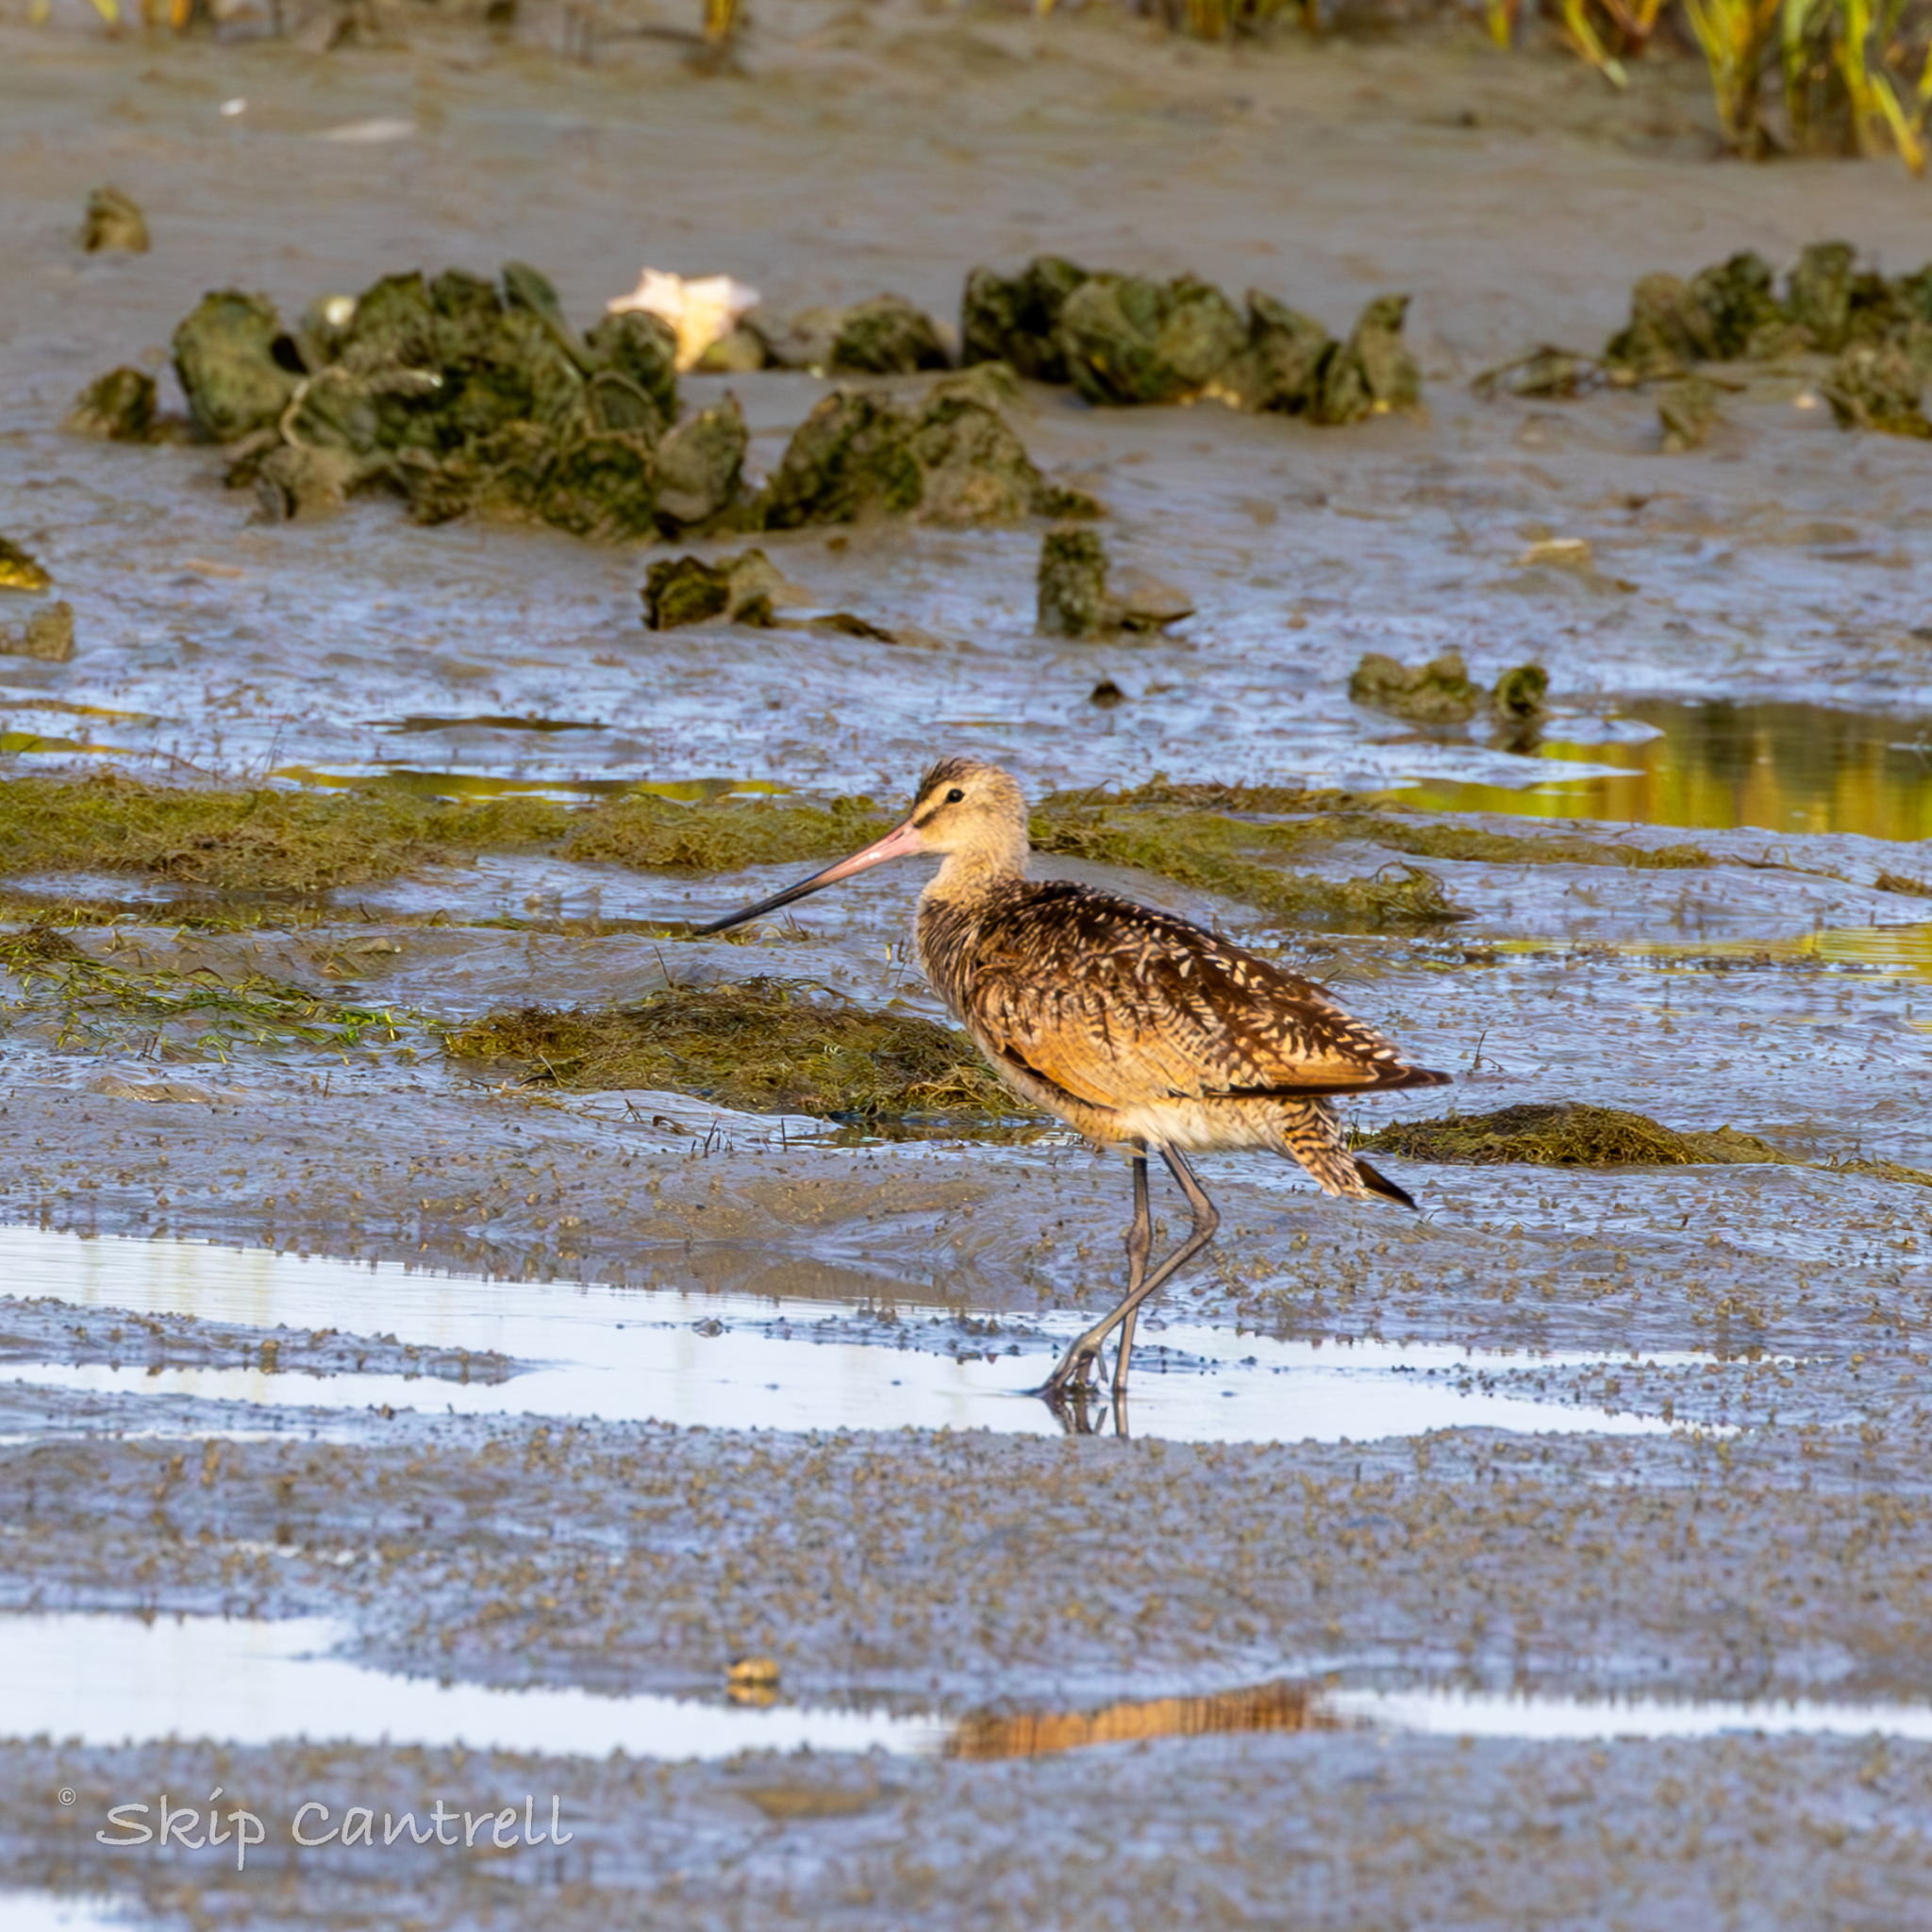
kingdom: Animalia
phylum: Chordata
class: Aves
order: Charadriiformes
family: Scolopacidae
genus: Limosa
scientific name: Limosa fedoa
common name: Marbled godwit
